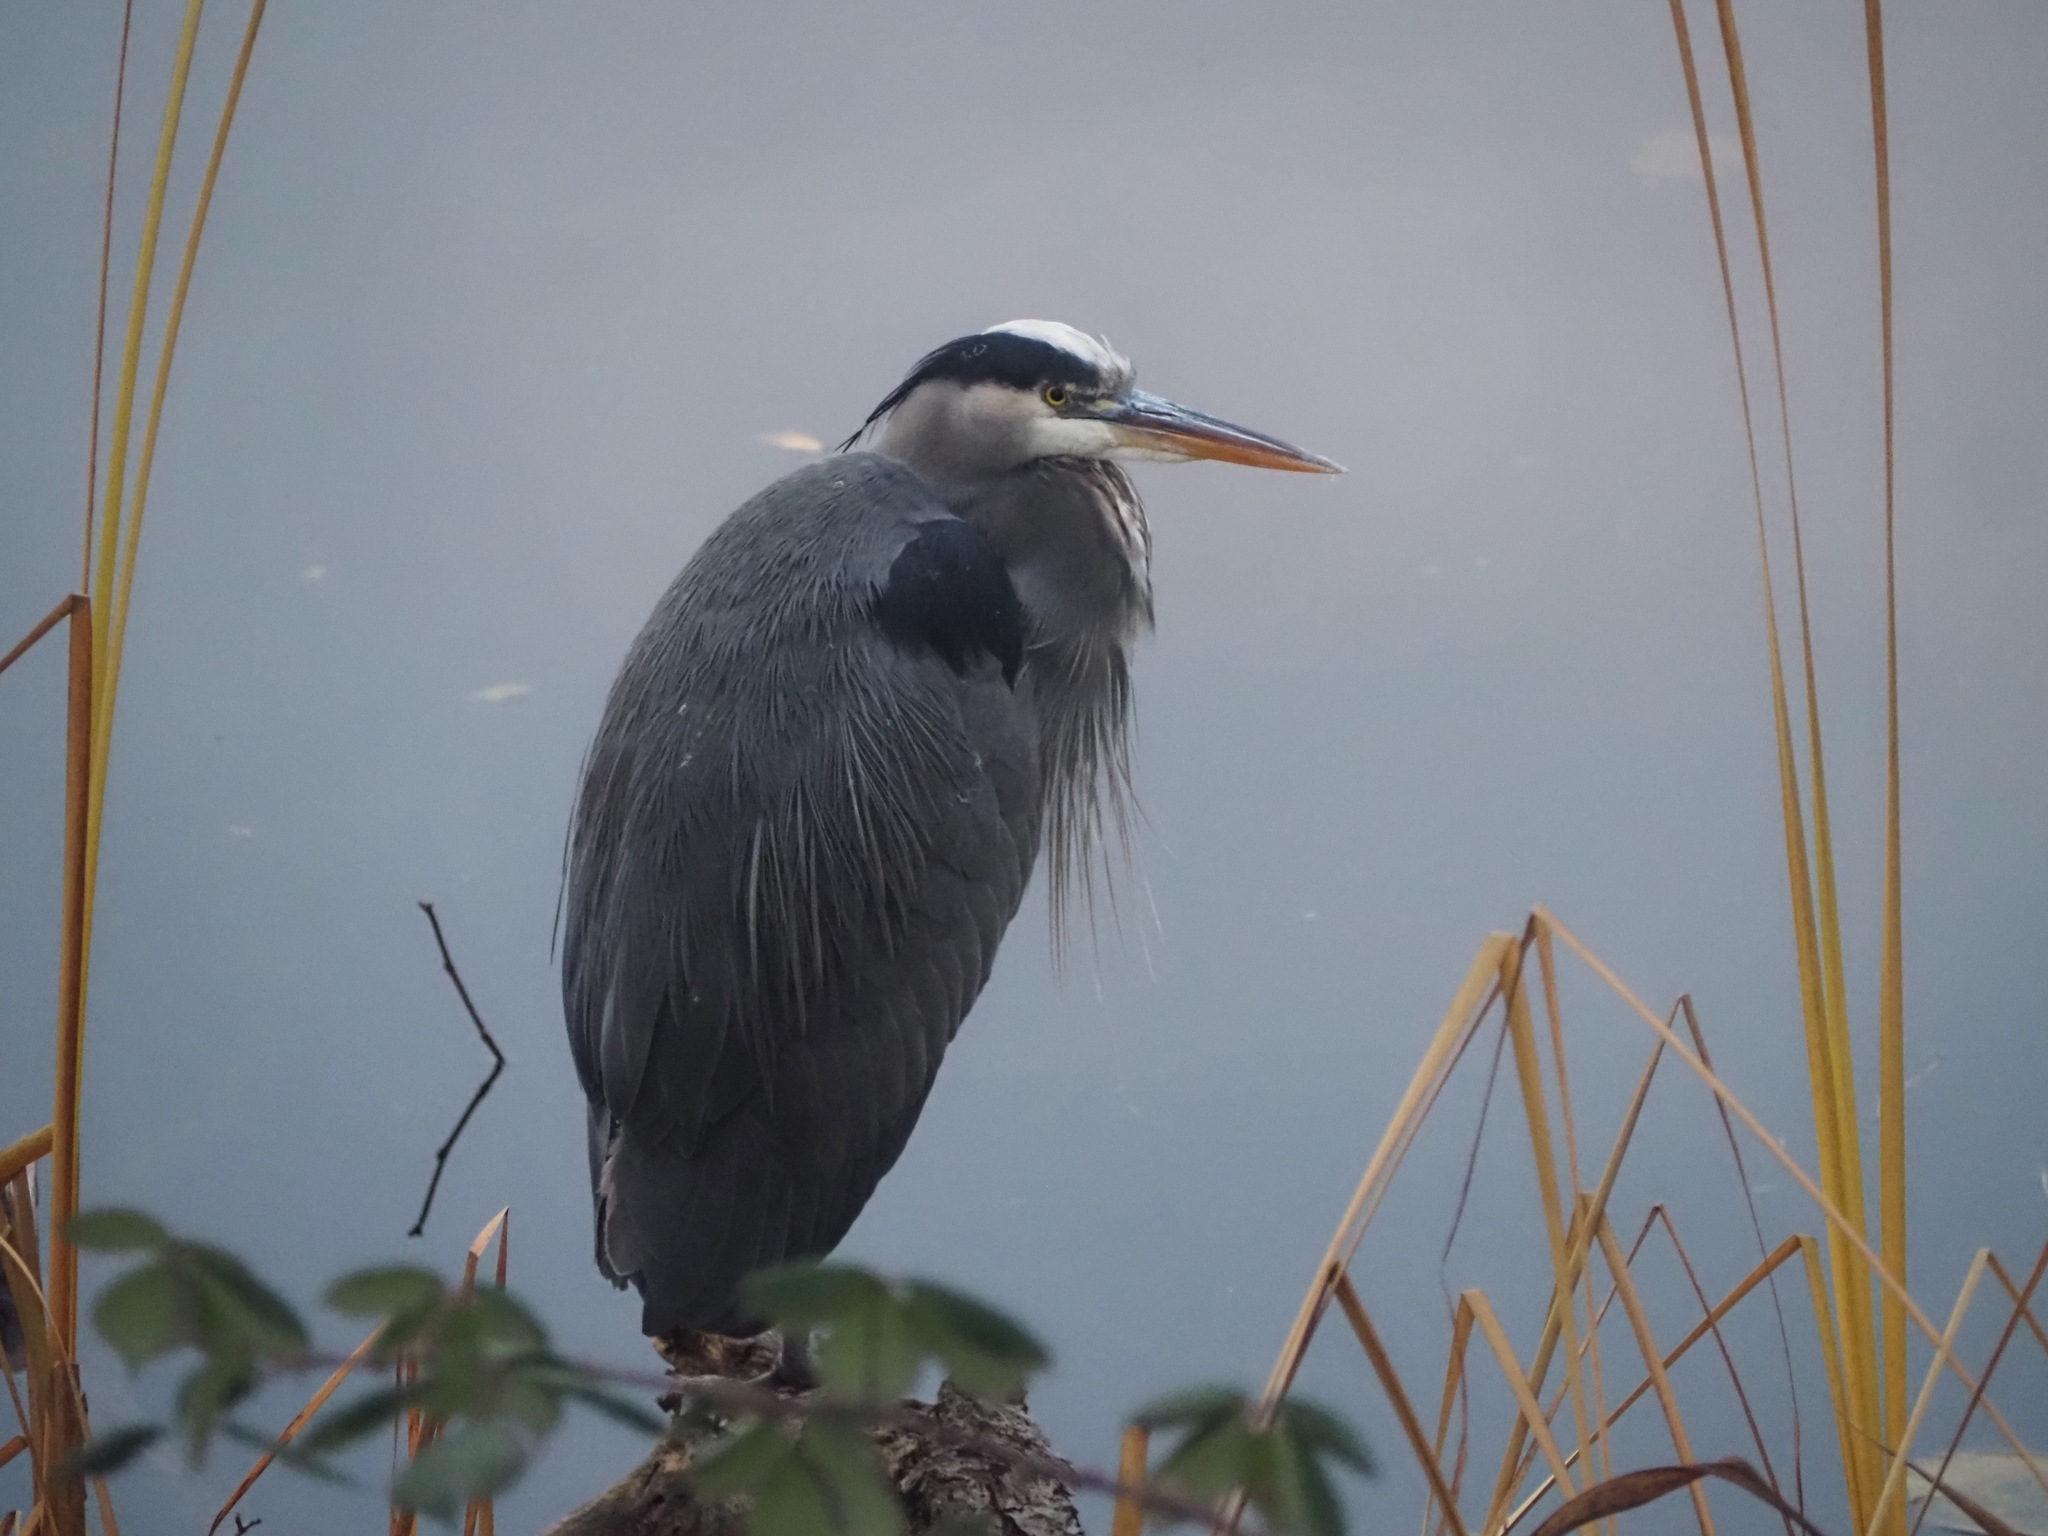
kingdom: Animalia
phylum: Chordata
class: Aves
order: Pelecaniformes
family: Ardeidae
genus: Ardea
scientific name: Ardea herodias
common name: Great blue heron
